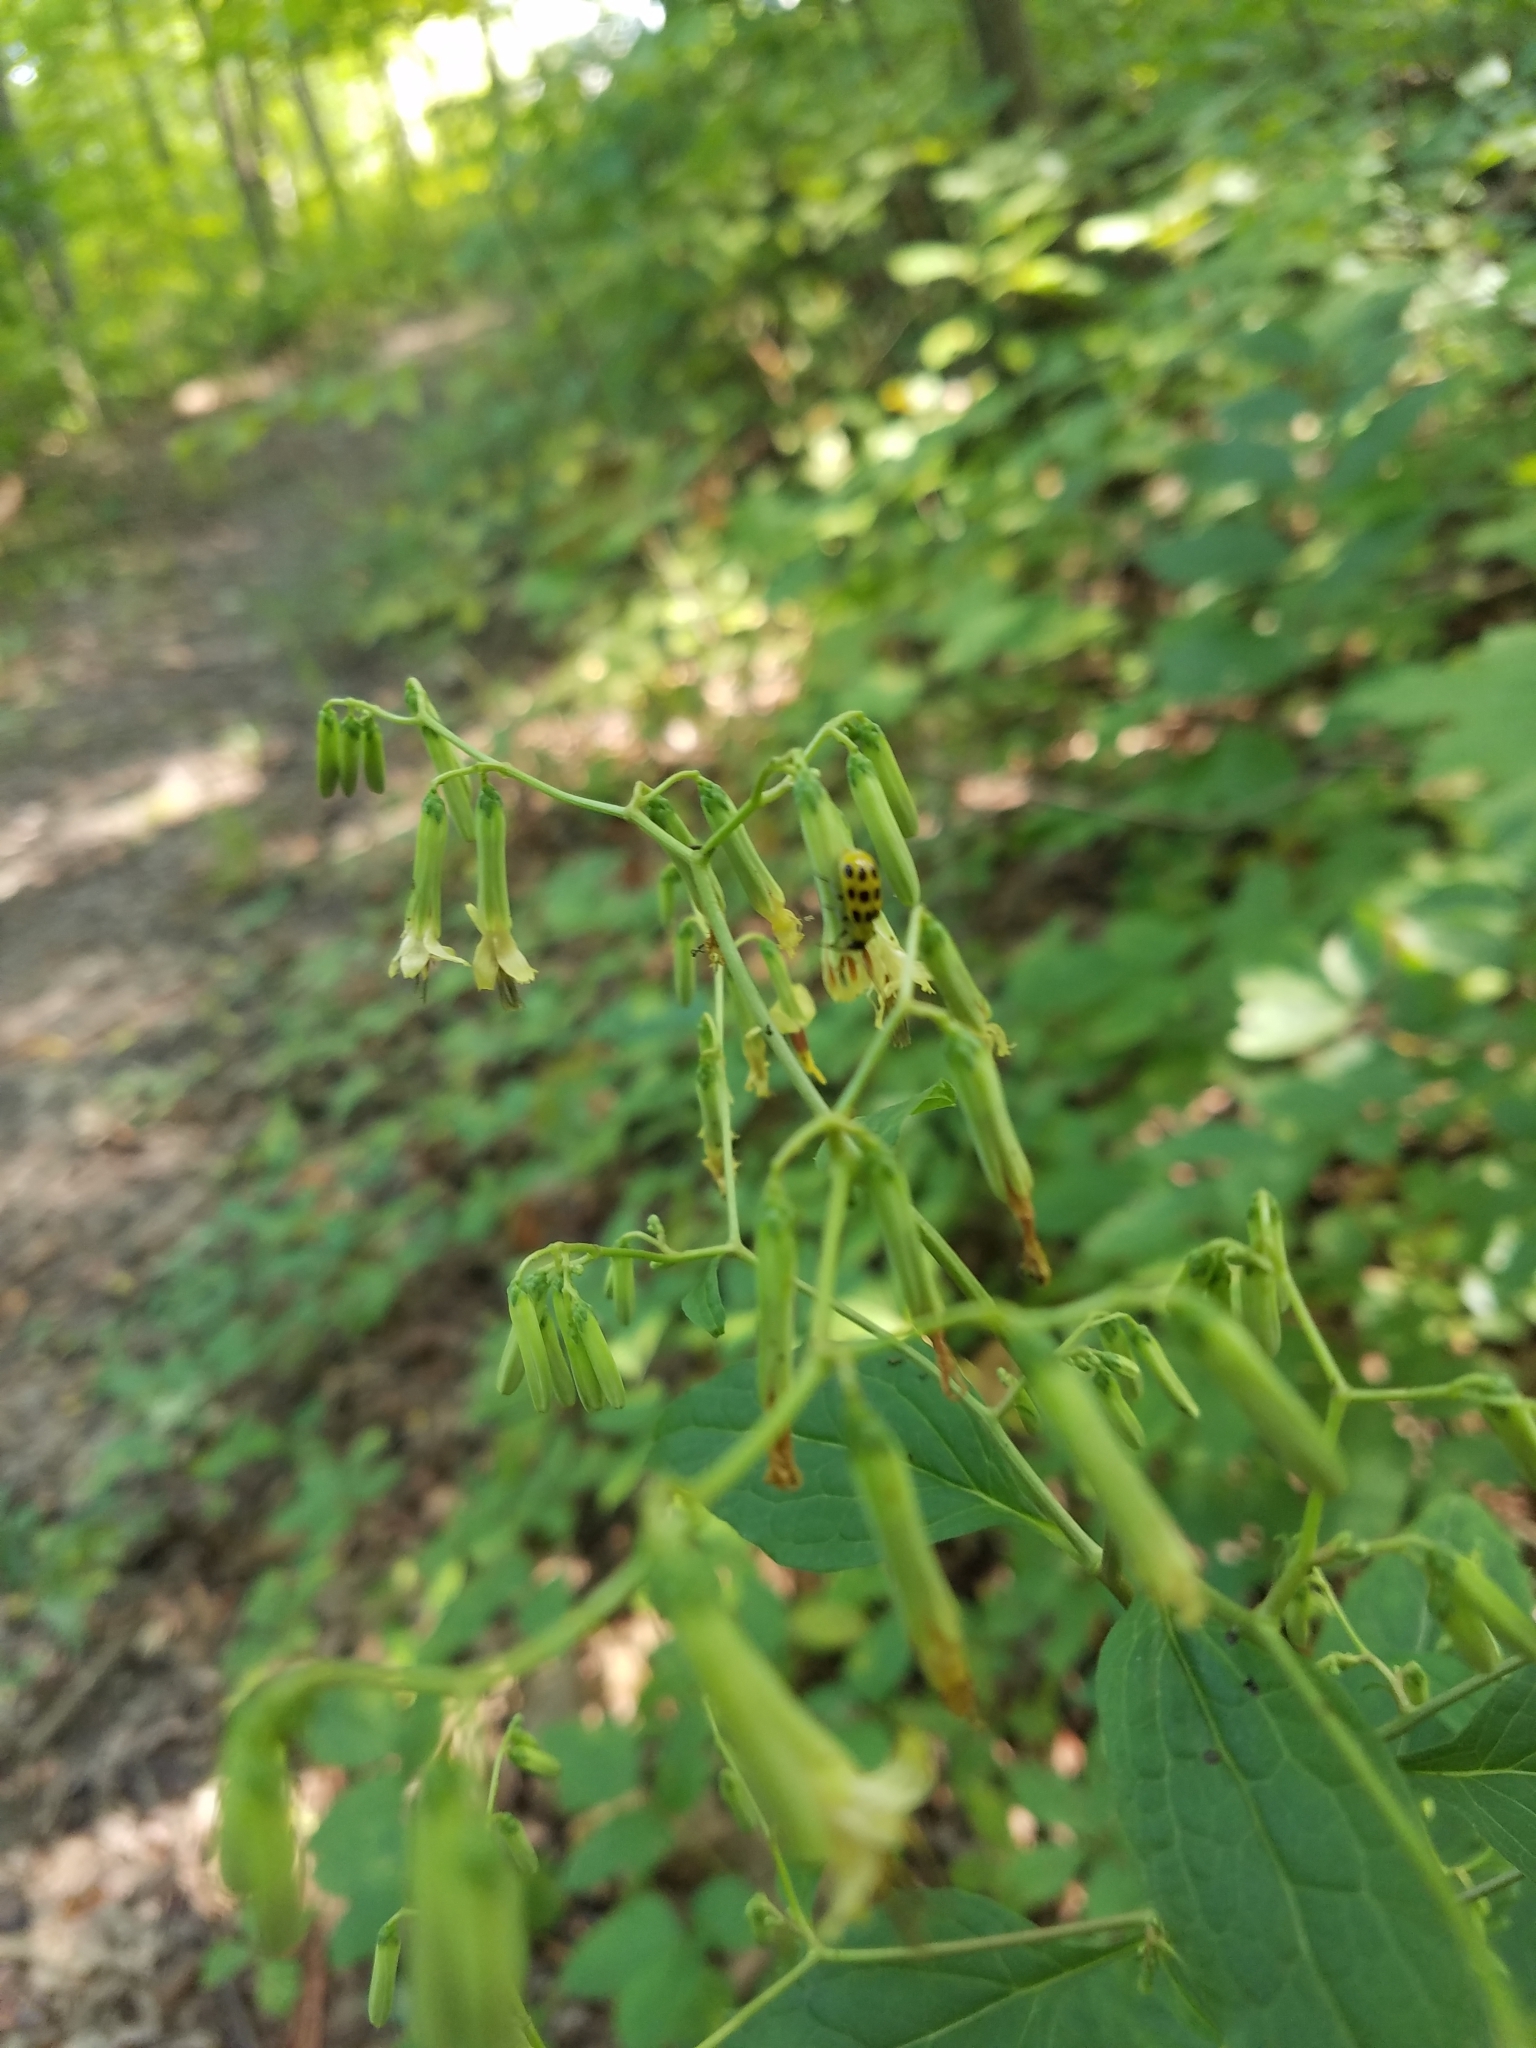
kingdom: Animalia
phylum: Arthropoda
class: Insecta
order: Coleoptera
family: Chrysomelidae
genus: Diabrotica
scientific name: Diabrotica undecimpunctata
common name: Spotted cucumber beetle
